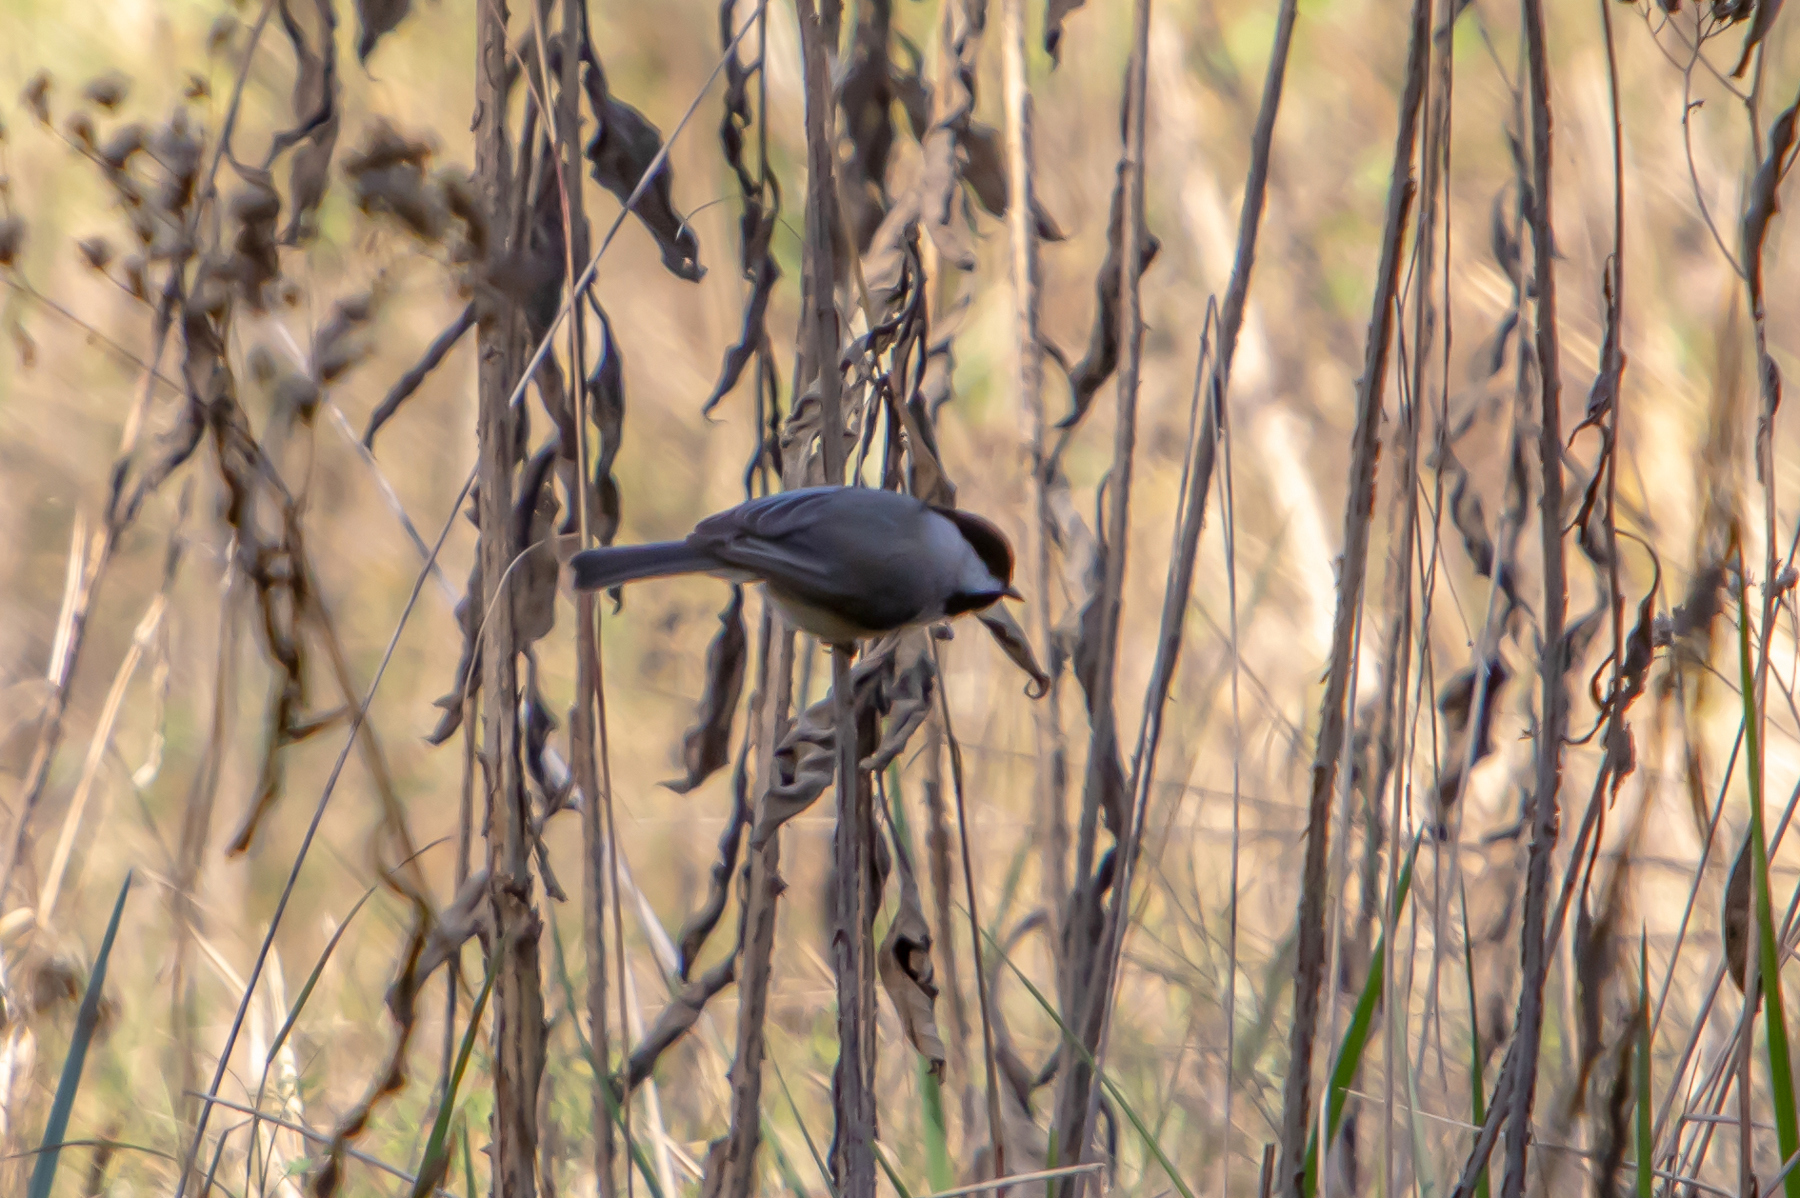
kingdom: Animalia
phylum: Chordata
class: Aves
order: Passeriformes
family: Paridae
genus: Poecile
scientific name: Poecile carolinensis
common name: Carolina chickadee
